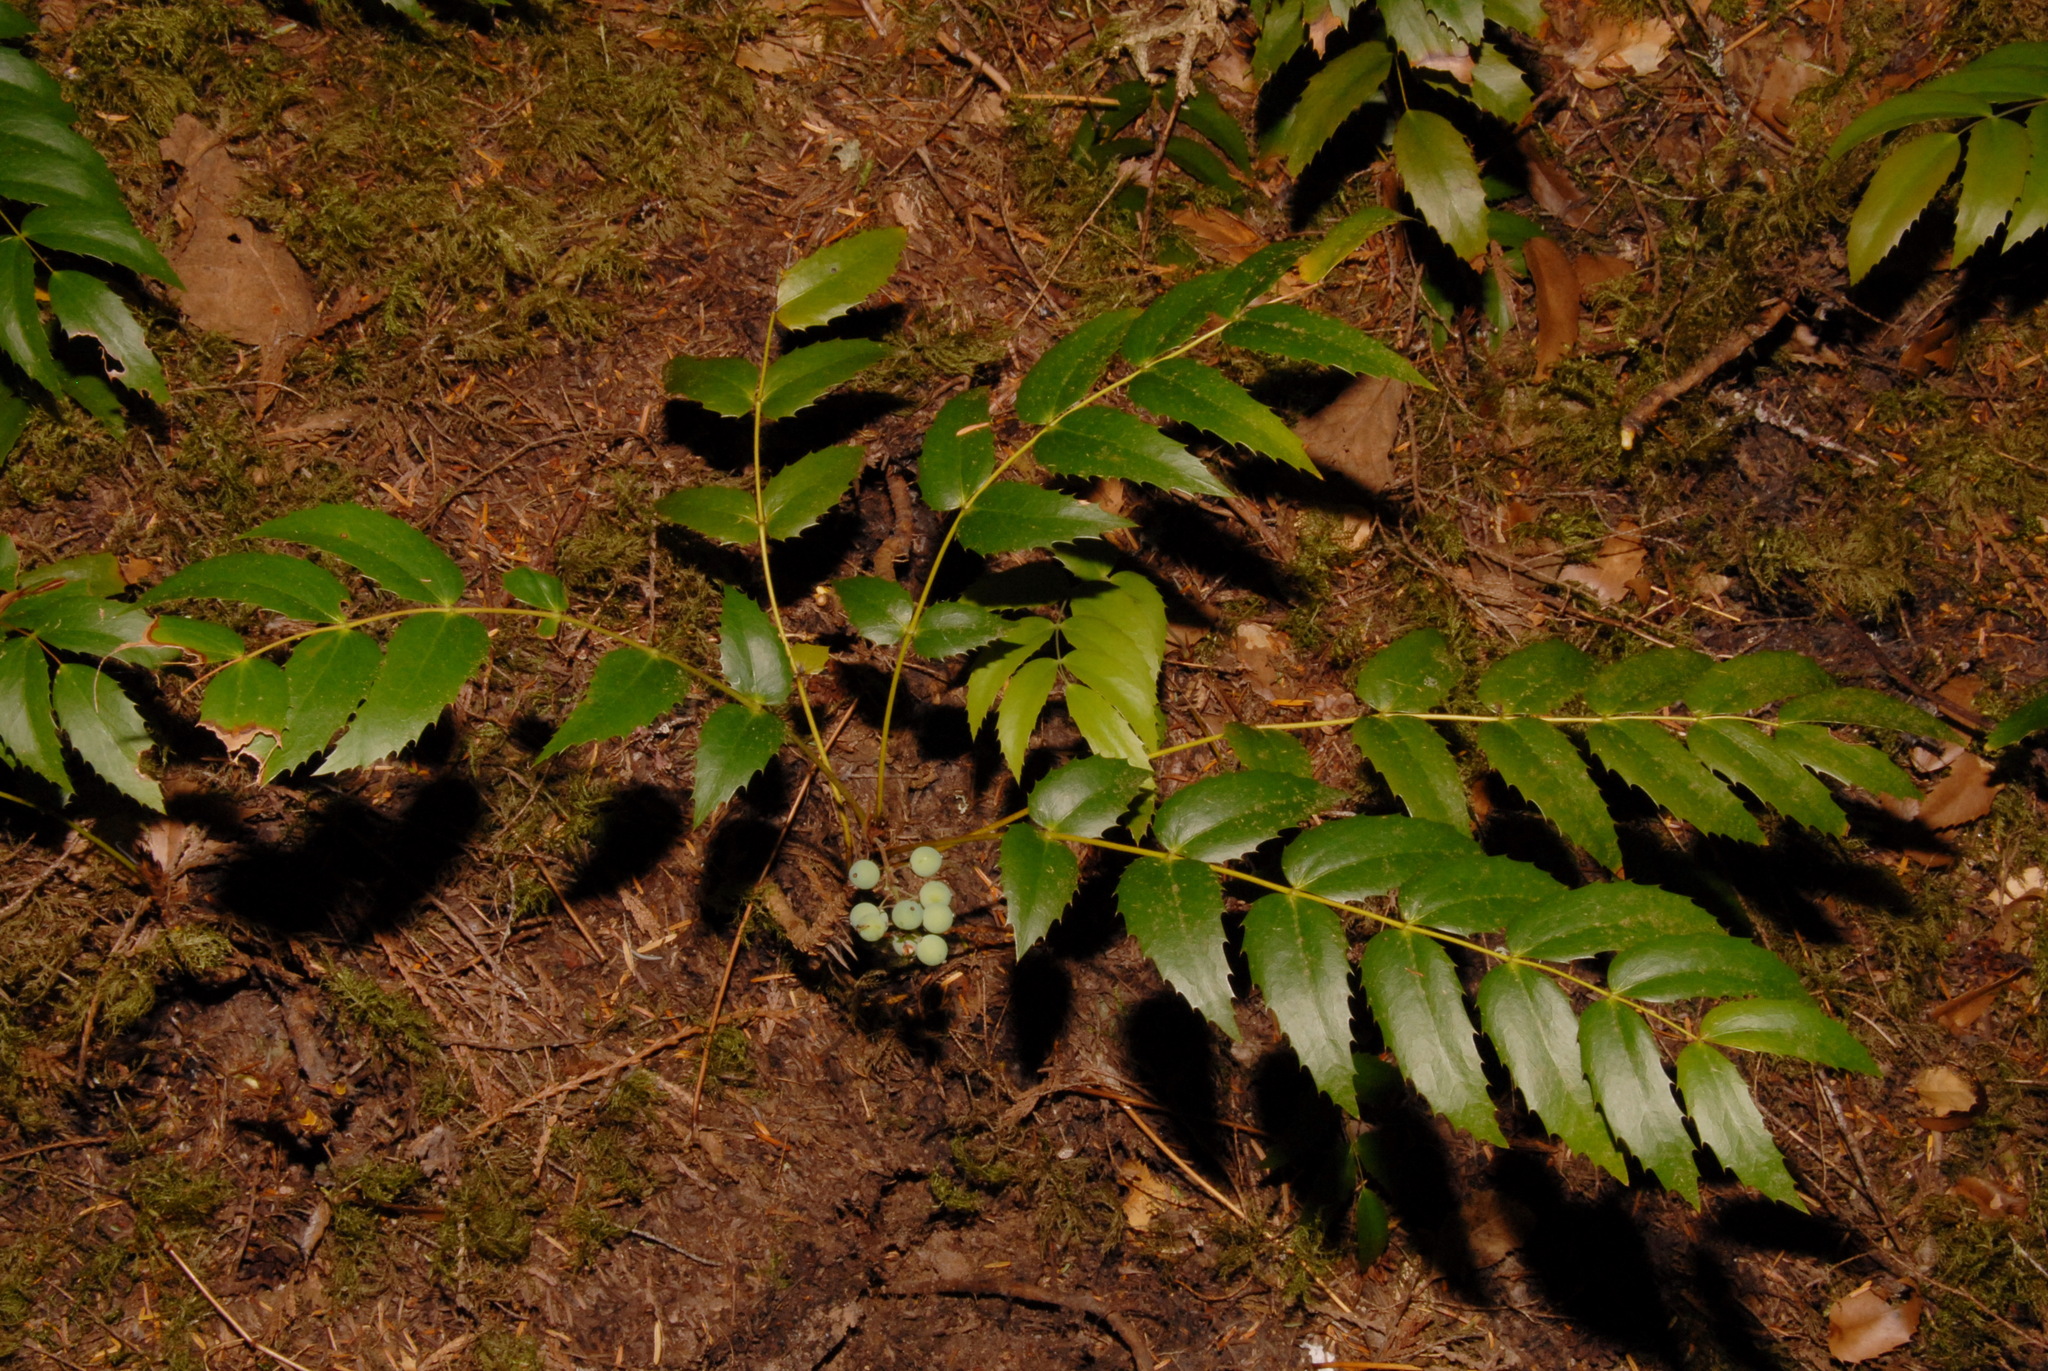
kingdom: Plantae
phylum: Tracheophyta
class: Magnoliopsida
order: Ranunculales
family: Berberidaceae
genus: Mahonia
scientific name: Mahonia nervosa
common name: Cascade oregon-grape
